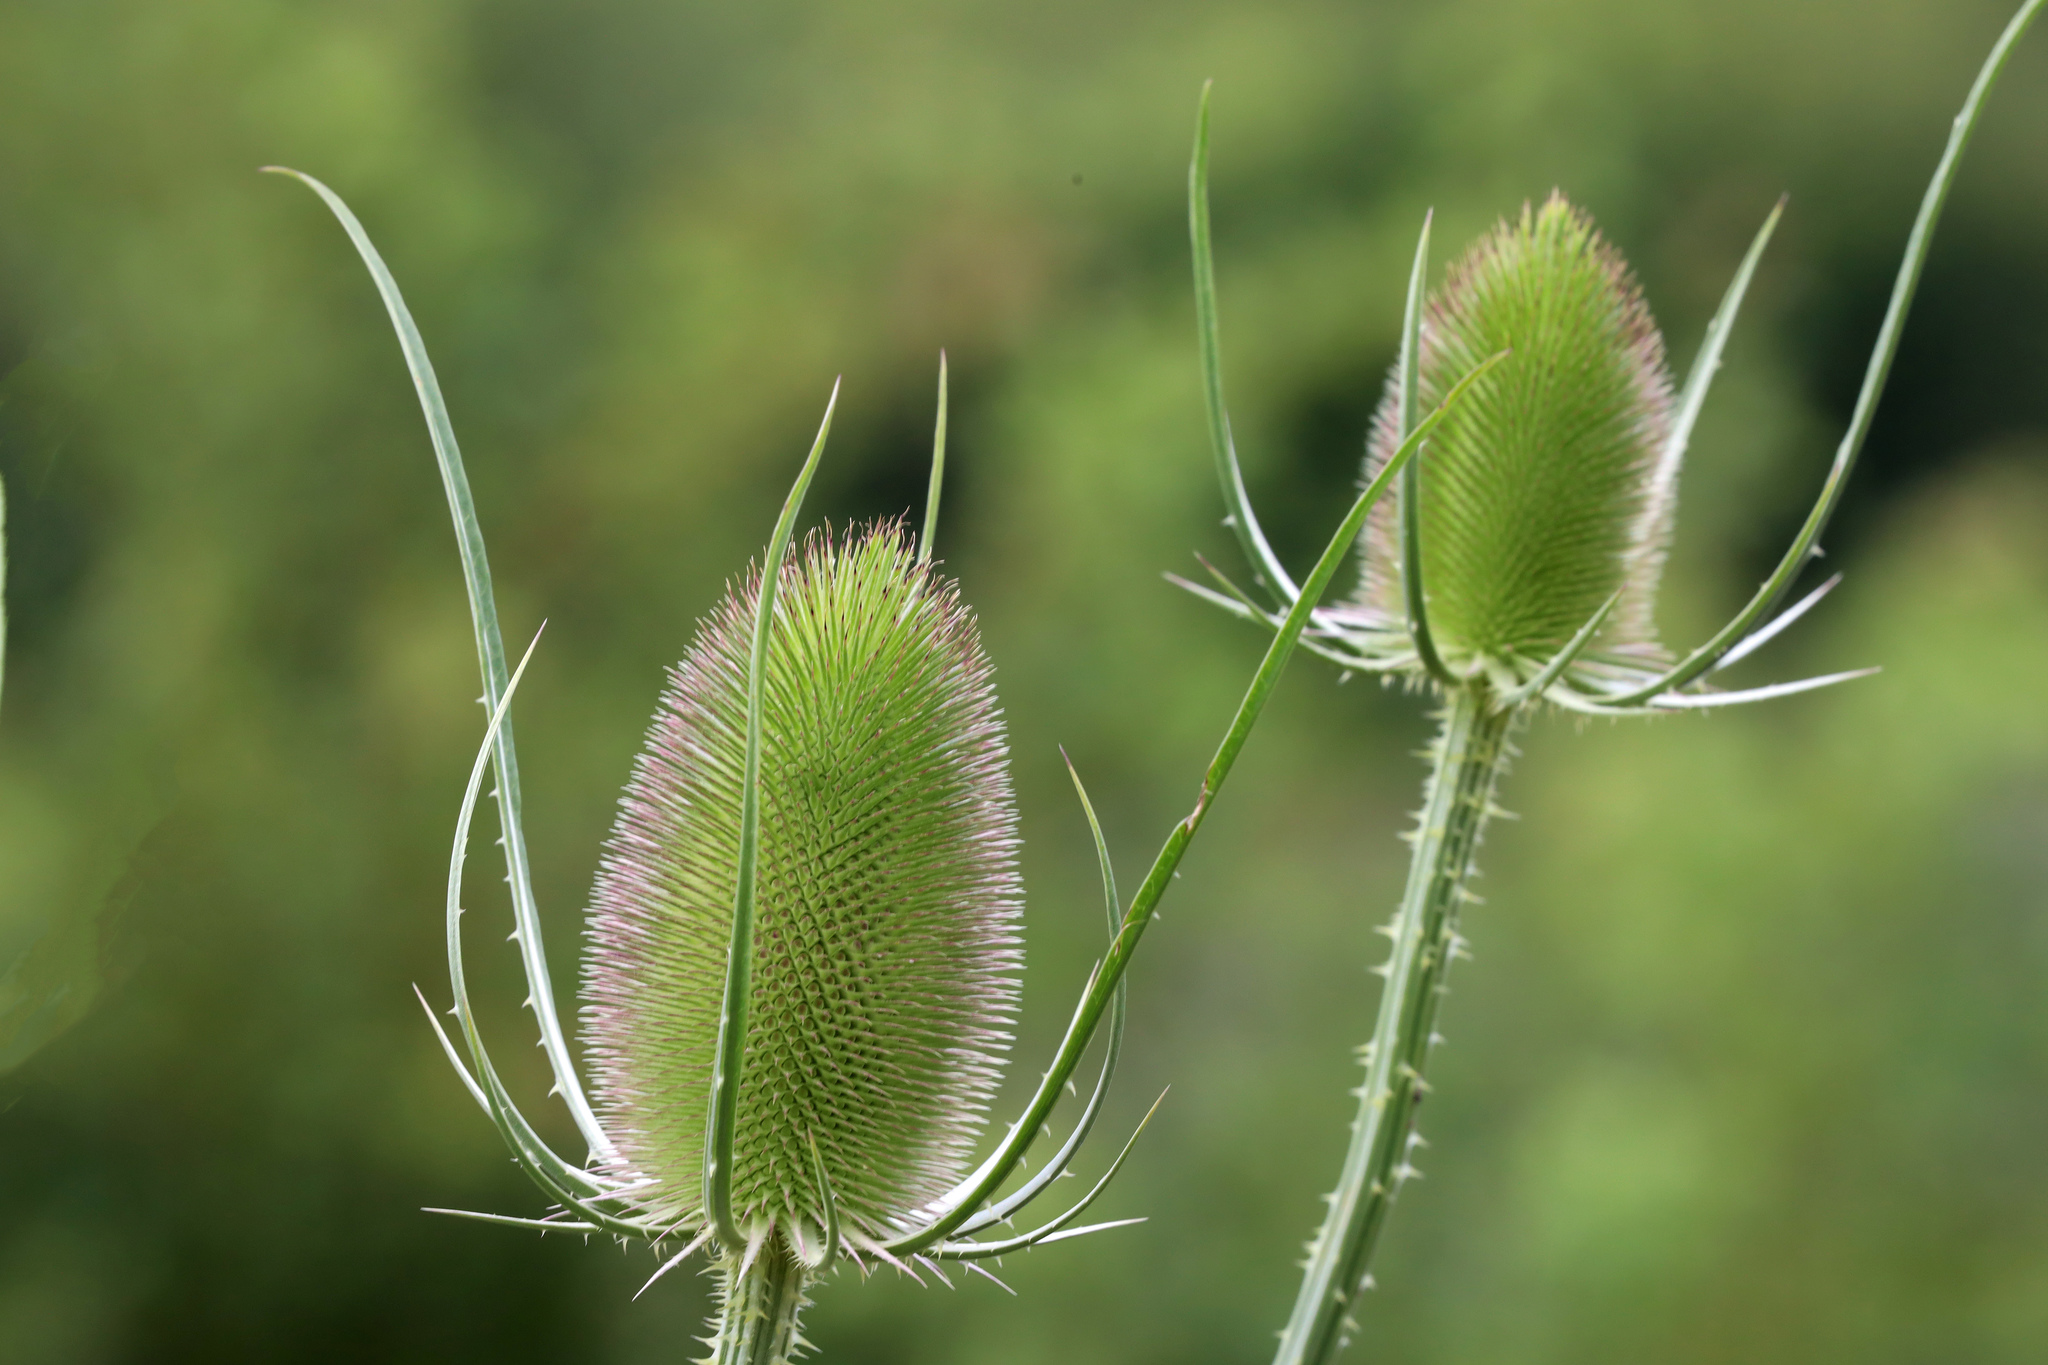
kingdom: Plantae
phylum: Tracheophyta
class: Magnoliopsida
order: Dipsacales
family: Caprifoliaceae
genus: Dipsacus
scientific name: Dipsacus fullonum
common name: Teasel
